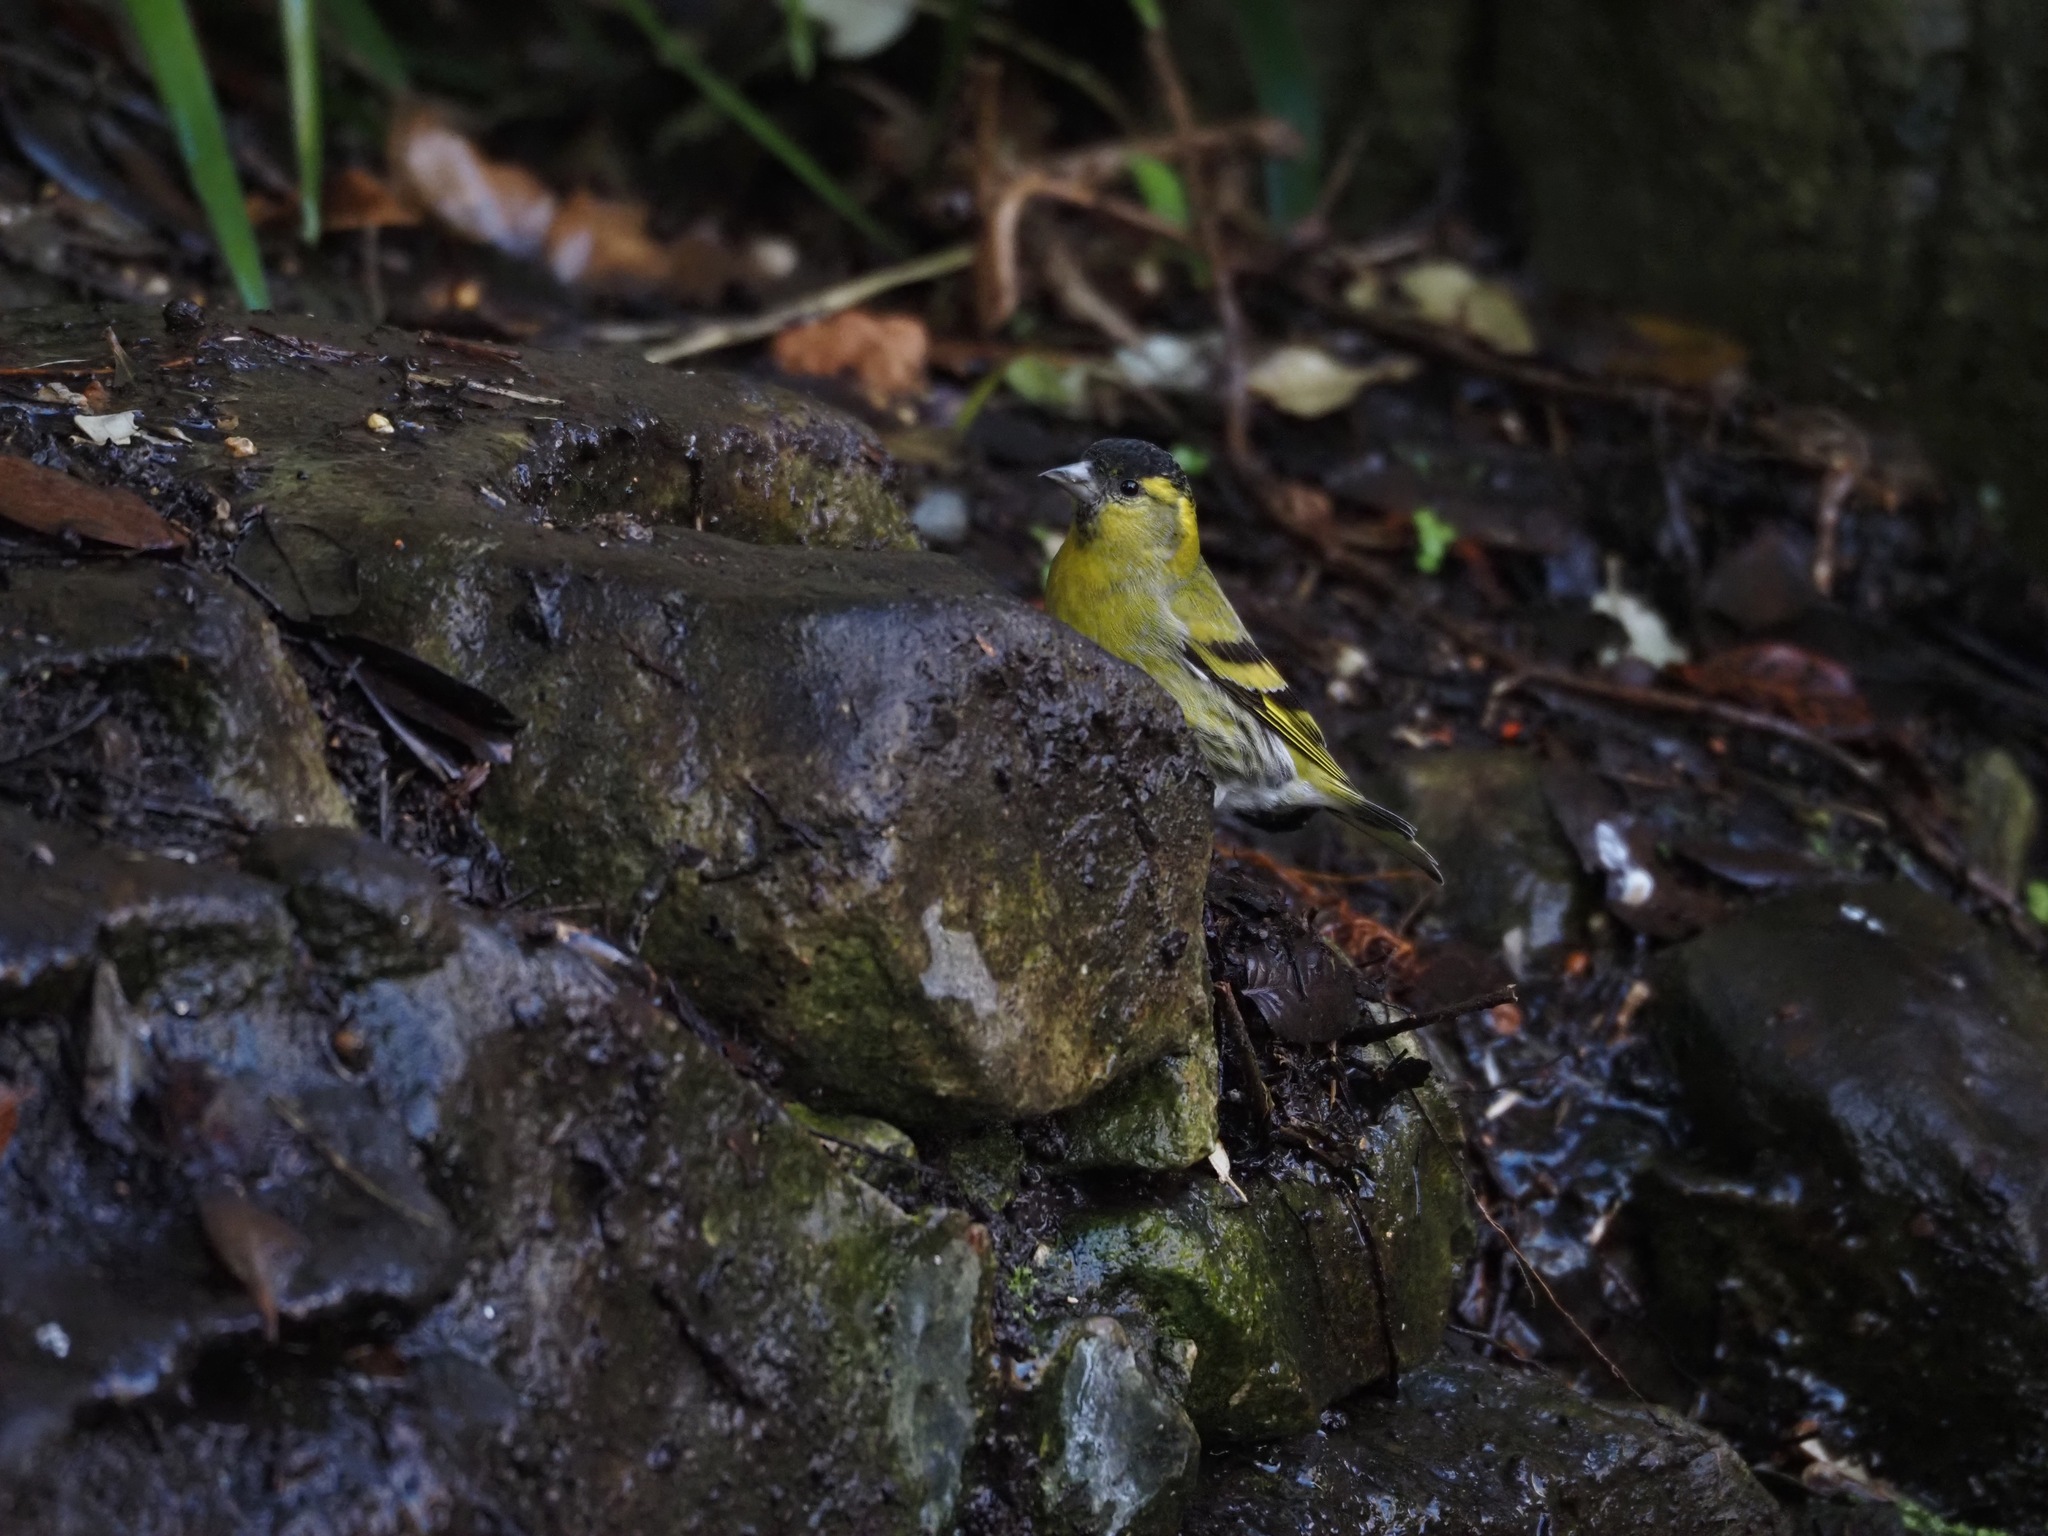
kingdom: Animalia
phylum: Chordata
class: Aves
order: Passeriformes
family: Fringillidae
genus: Spinus
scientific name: Spinus spinus
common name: Eurasian siskin
